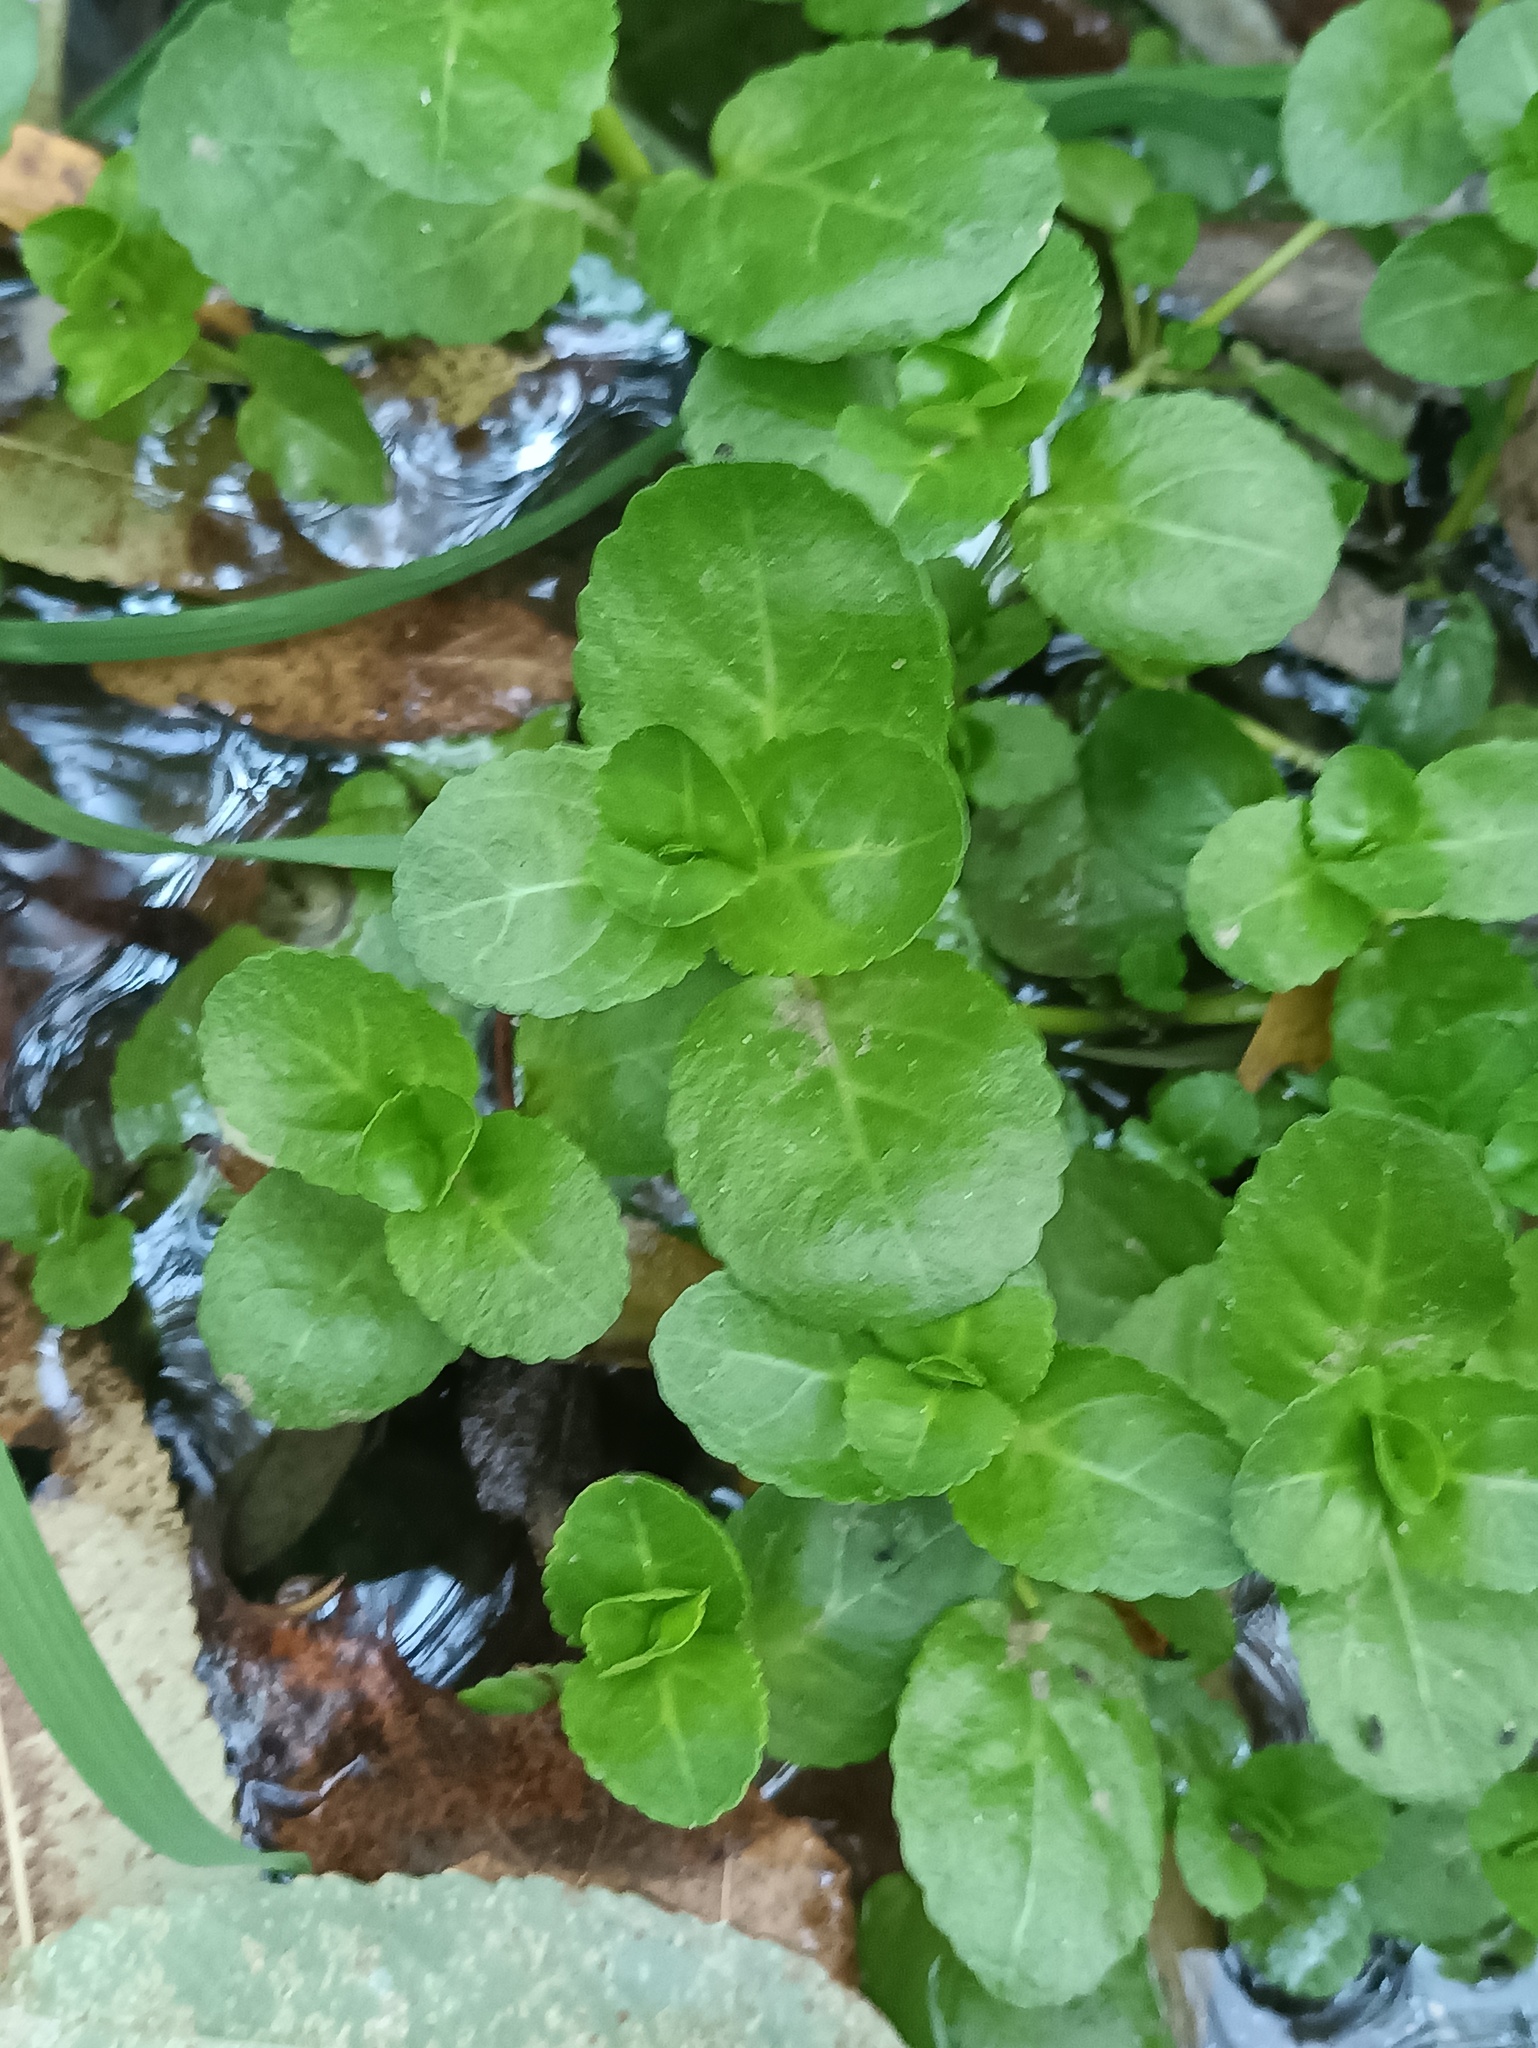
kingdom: Plantae
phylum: Tracheophyta
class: Magnoliopsida
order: Lamiales
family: Plantaginaceae
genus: Veronica
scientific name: Veronica beccabunga
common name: Brooklime
